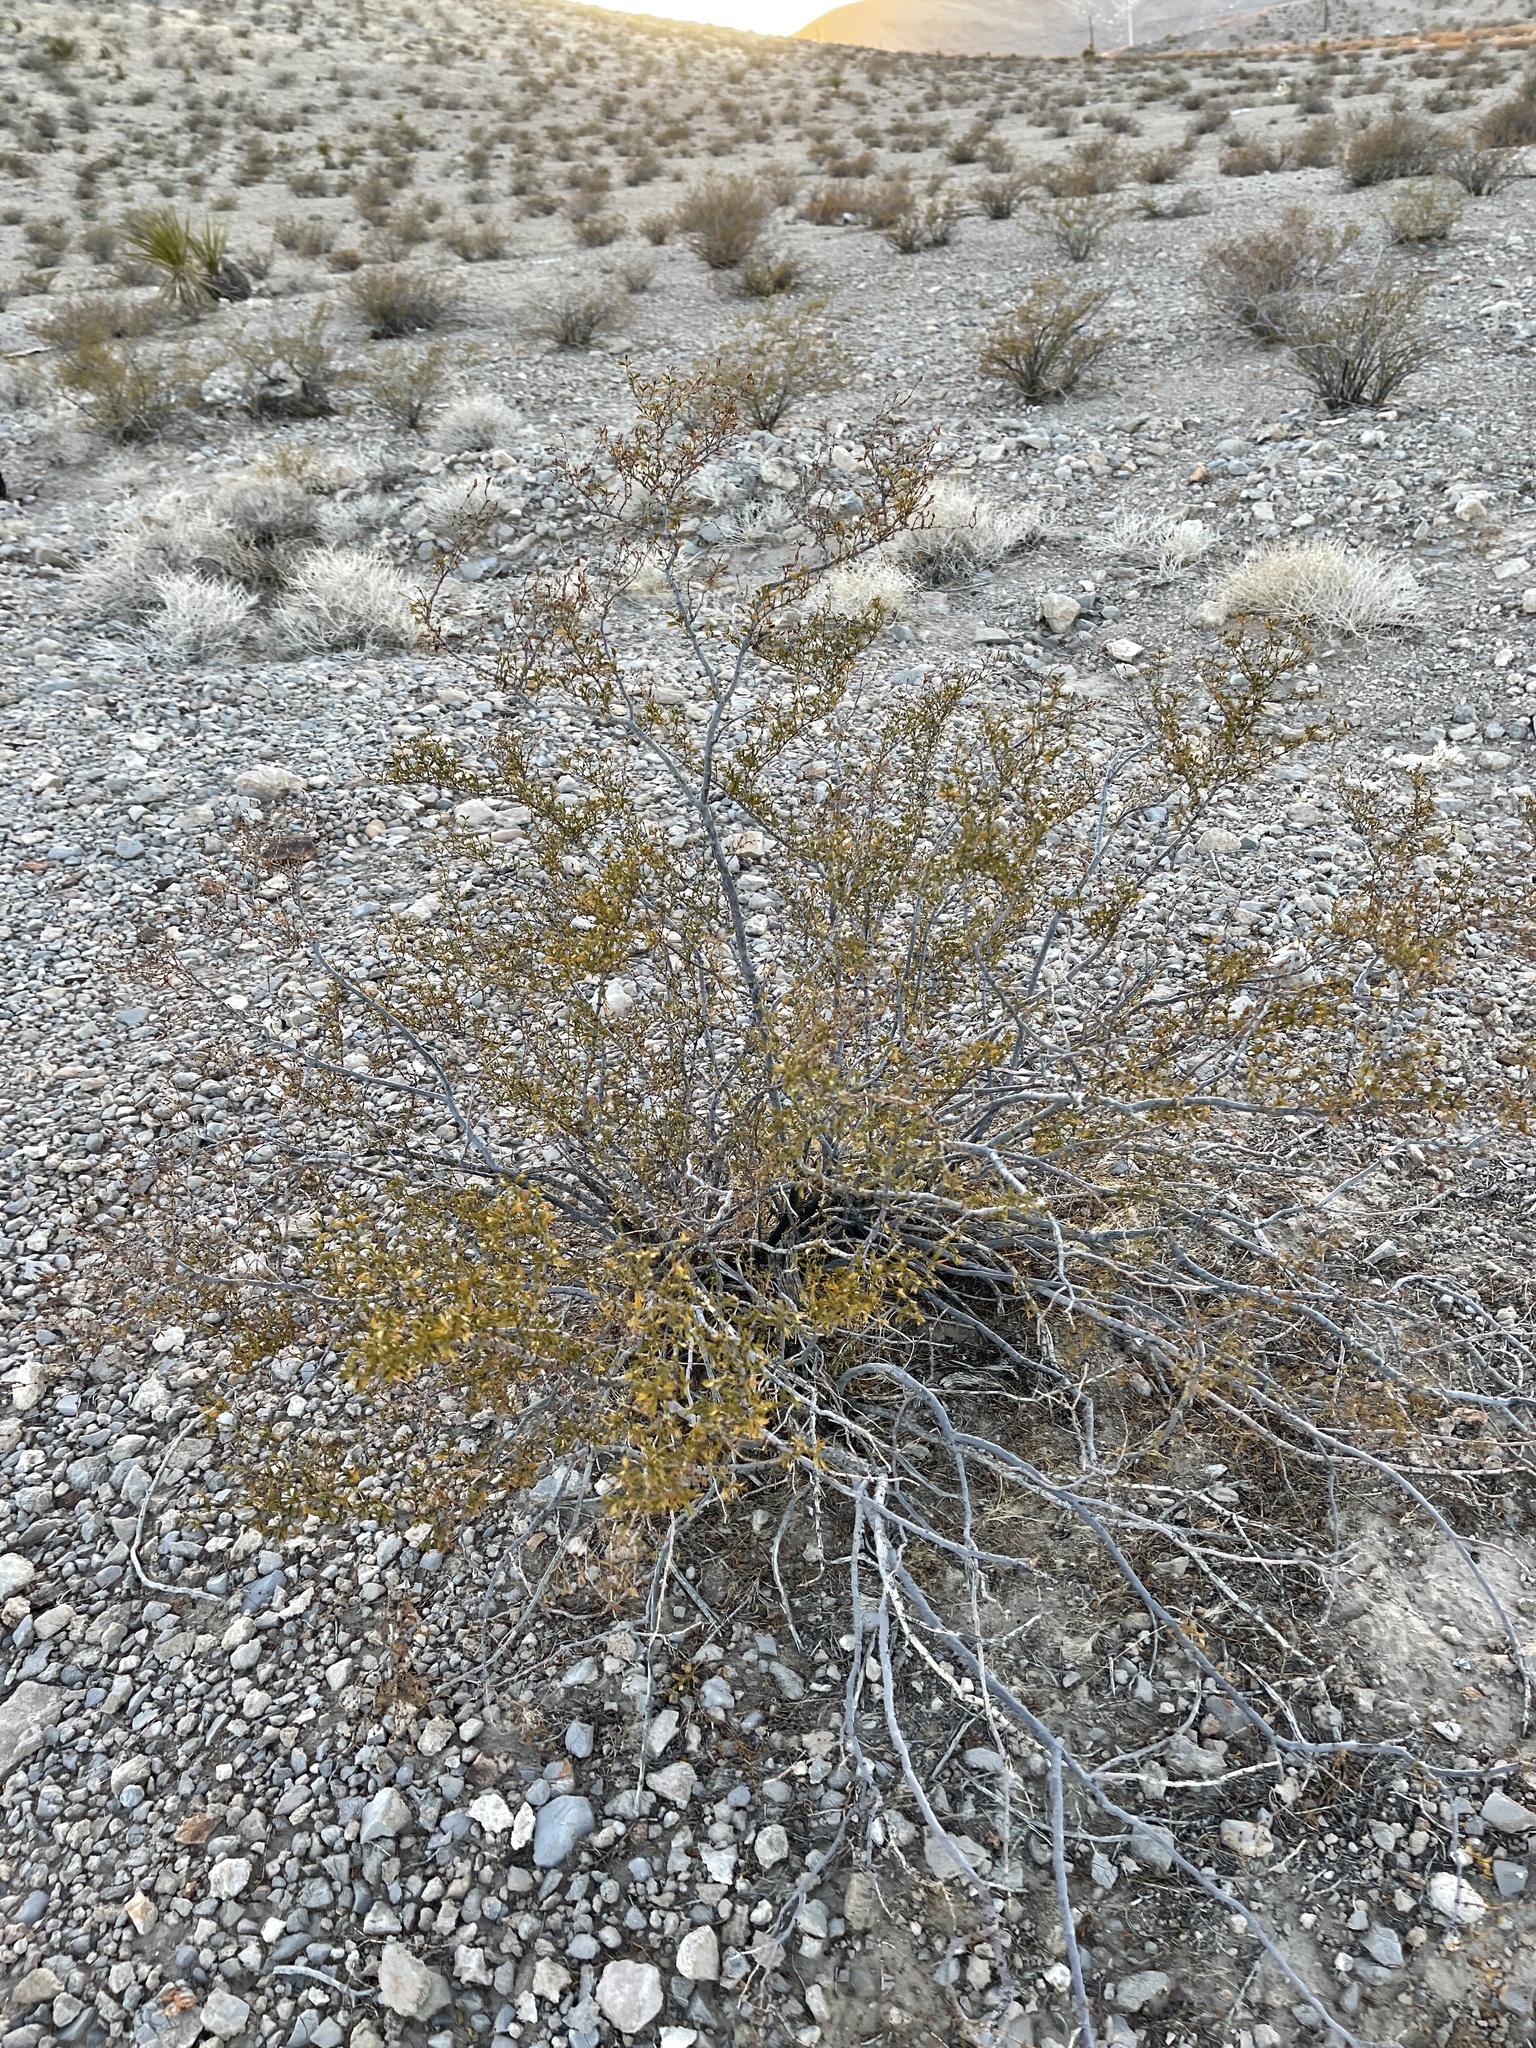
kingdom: Plantae
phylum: Tracheophyta
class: Magnoliopsida
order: Zygophyllales
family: Zygophyllaceae
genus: Larrea
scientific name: Larrea tridentata
